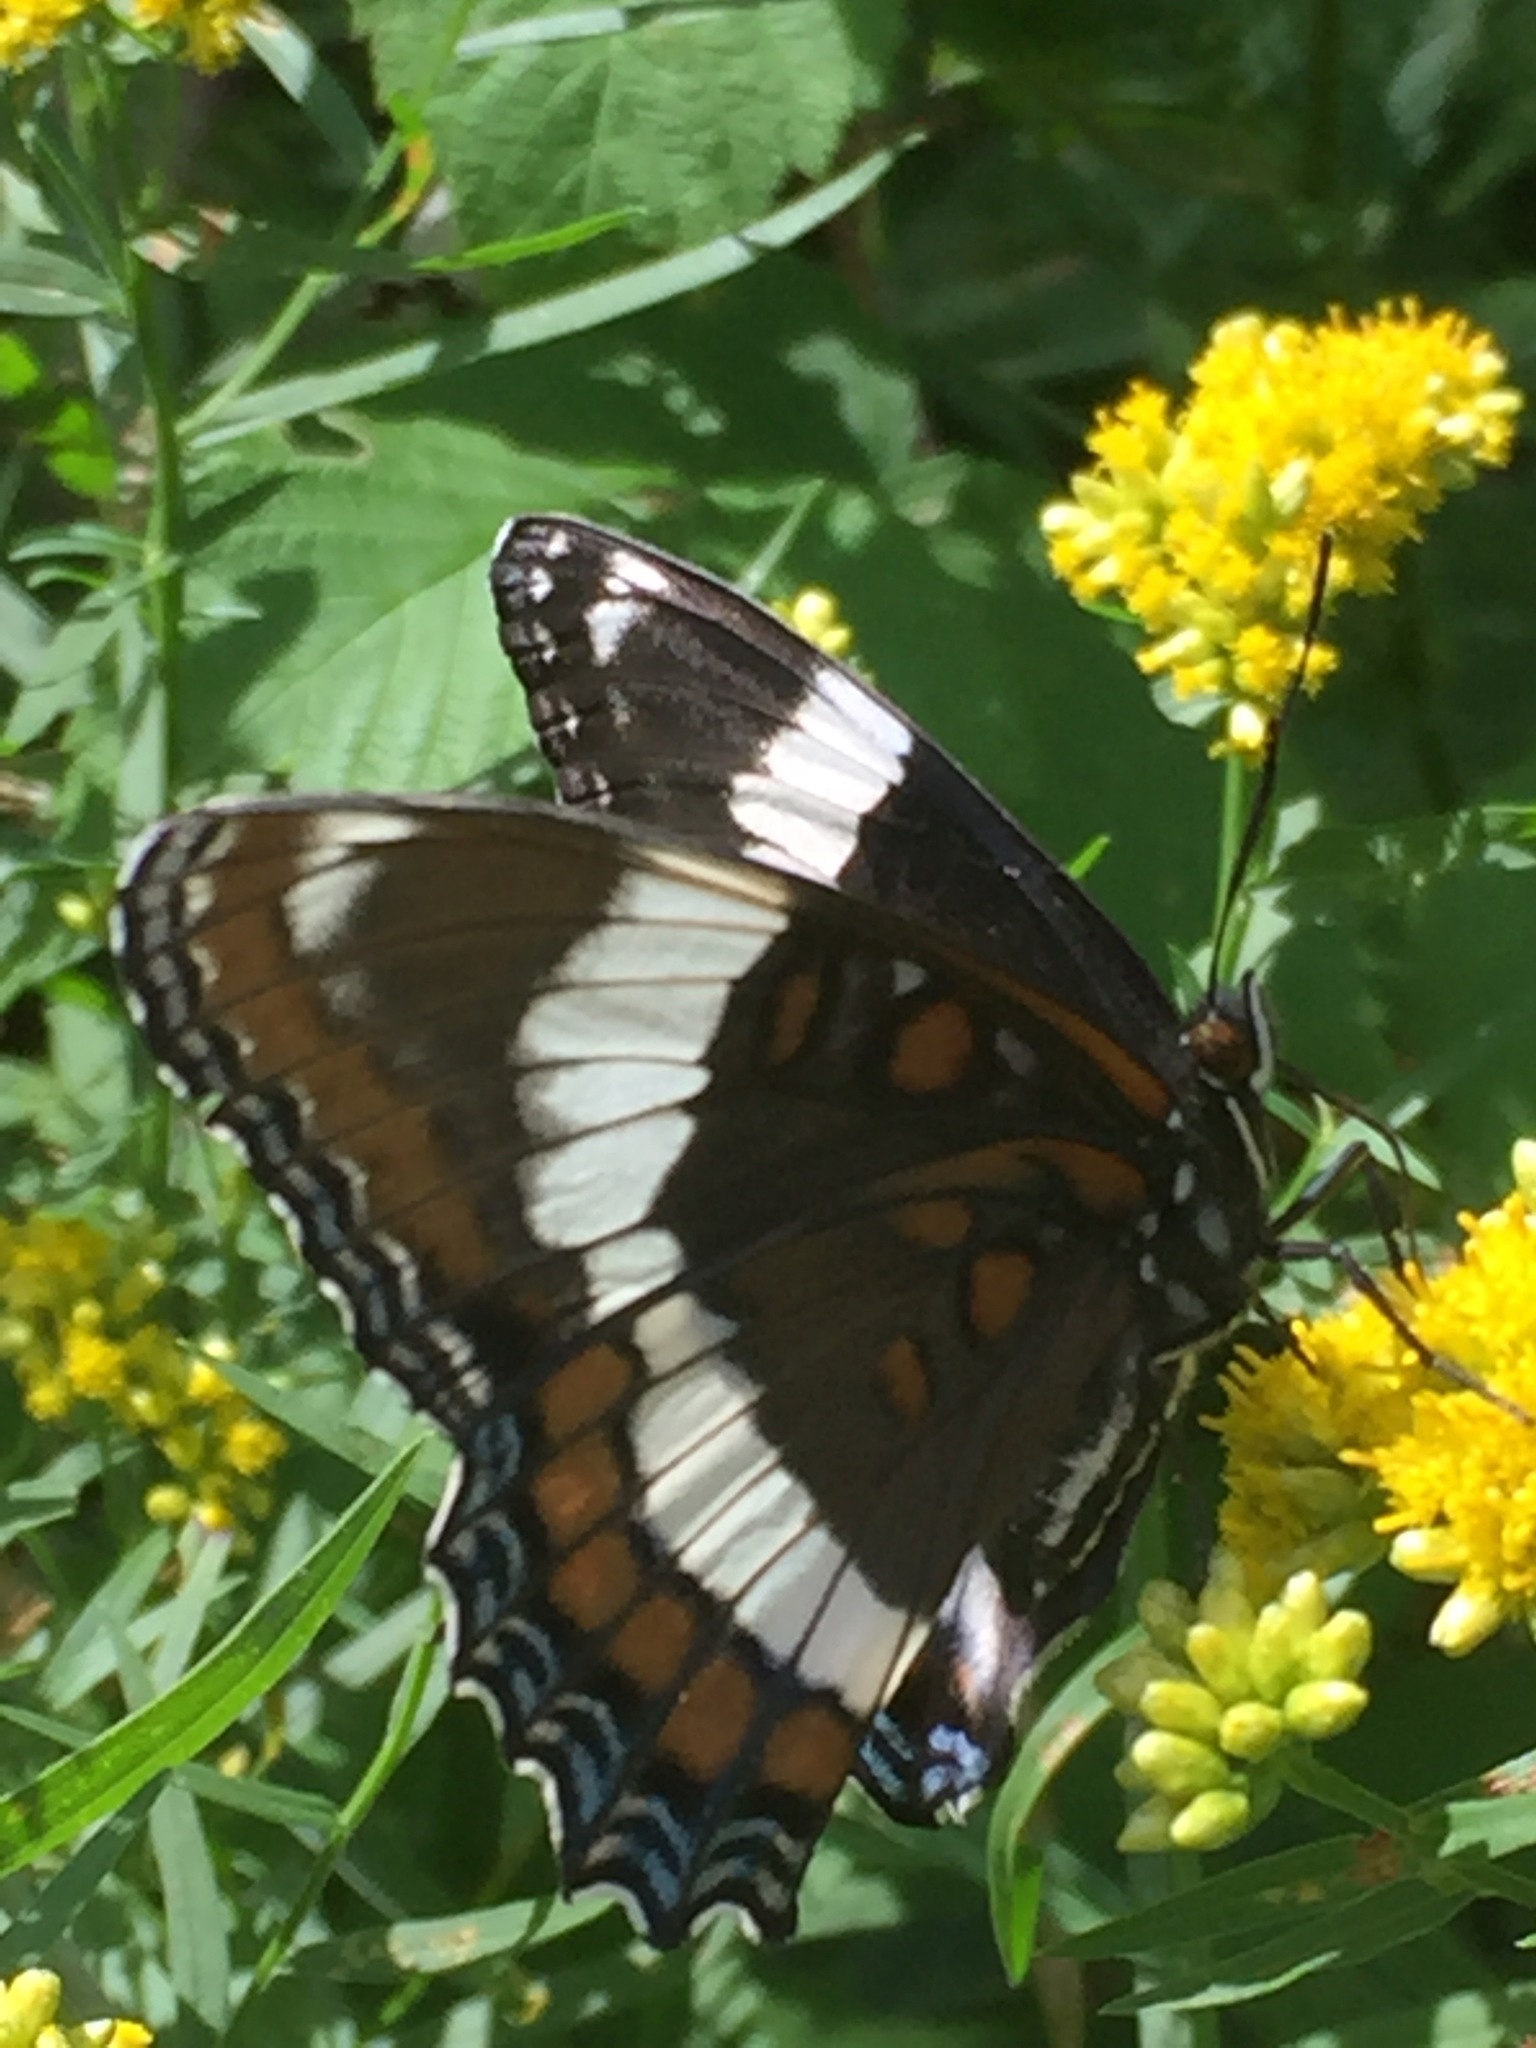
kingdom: Animalia
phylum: Arthropoda
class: Insecta
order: Lepidoptera
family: Nymphalidae
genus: Limenitis
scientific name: Limenitis arthemis
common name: Red-spotted admiral
